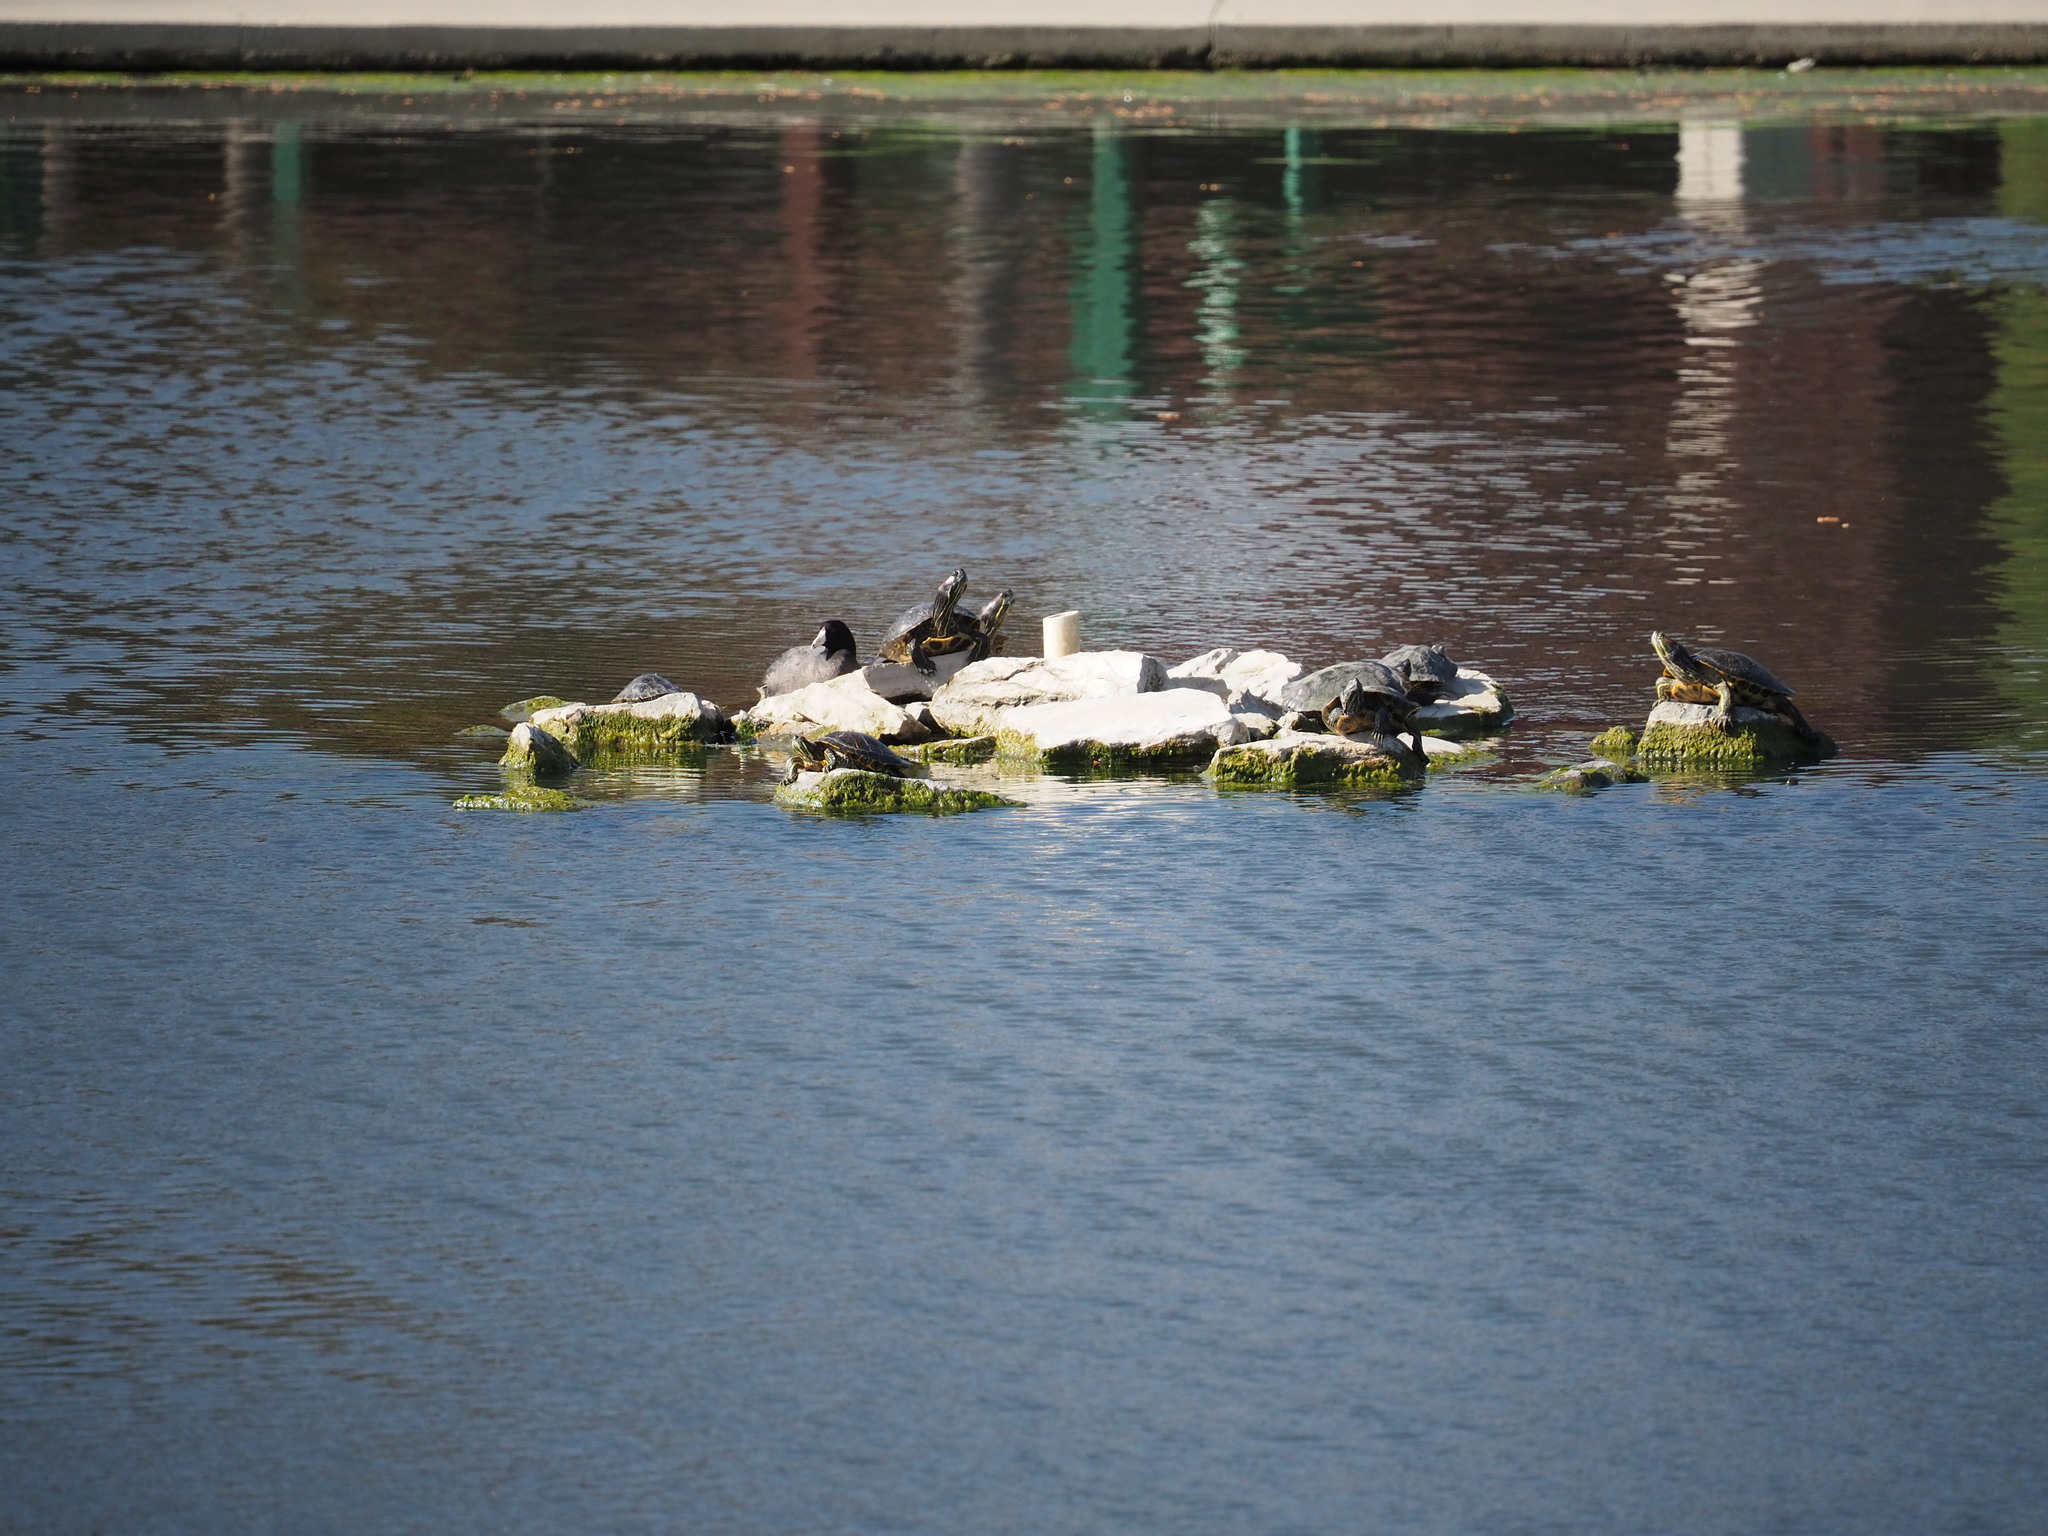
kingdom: Animalia
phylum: Chordata
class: Testudines
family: Emydidae
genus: Trachemys
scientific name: Trachemys scripta
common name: Slider
